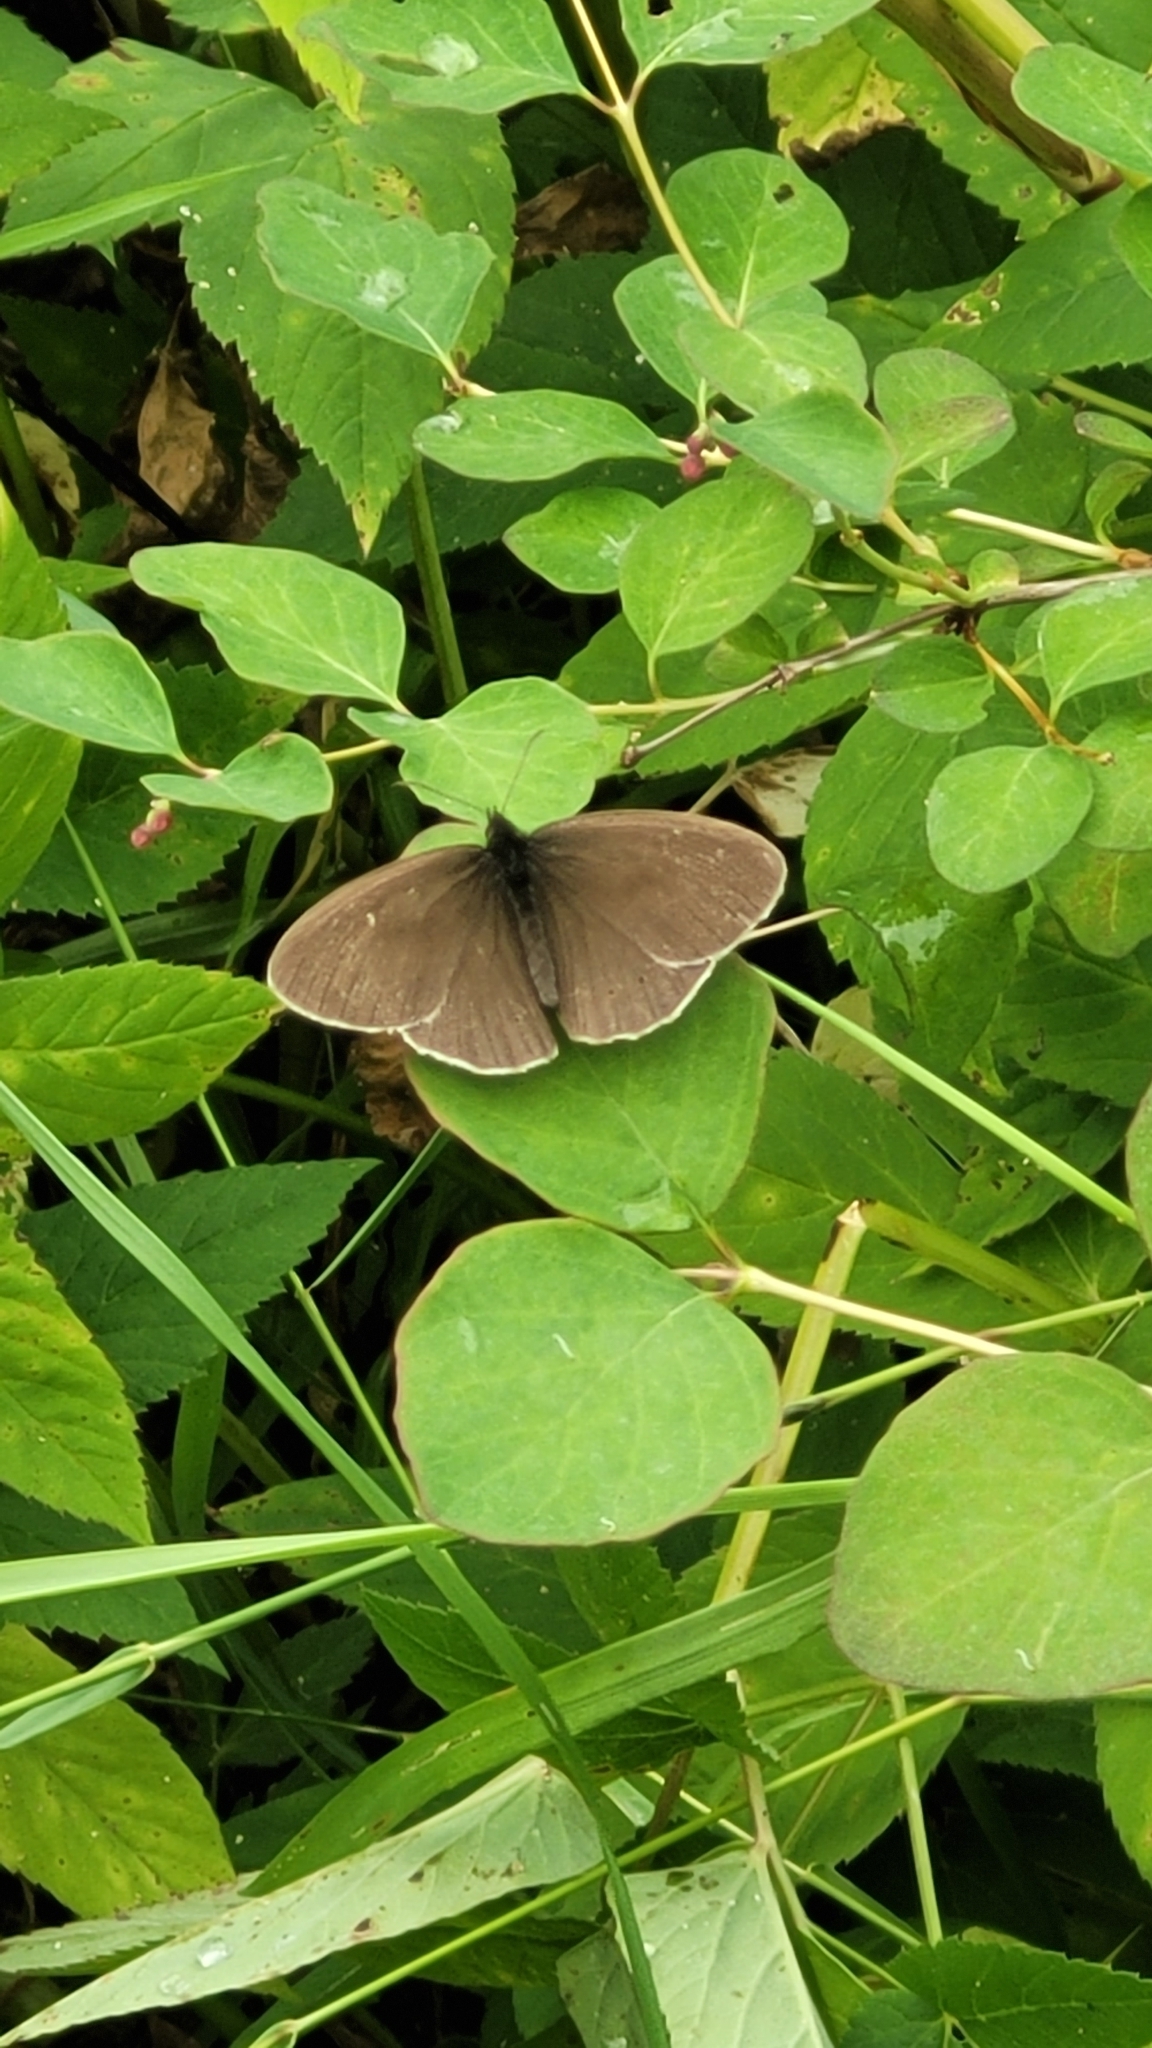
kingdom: Animalia
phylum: Arthropoda
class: Insecta
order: Lepidoptera
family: Nymphalidae
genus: Aphantopus
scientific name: Aphantopus hyperantus
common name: Ringlet
